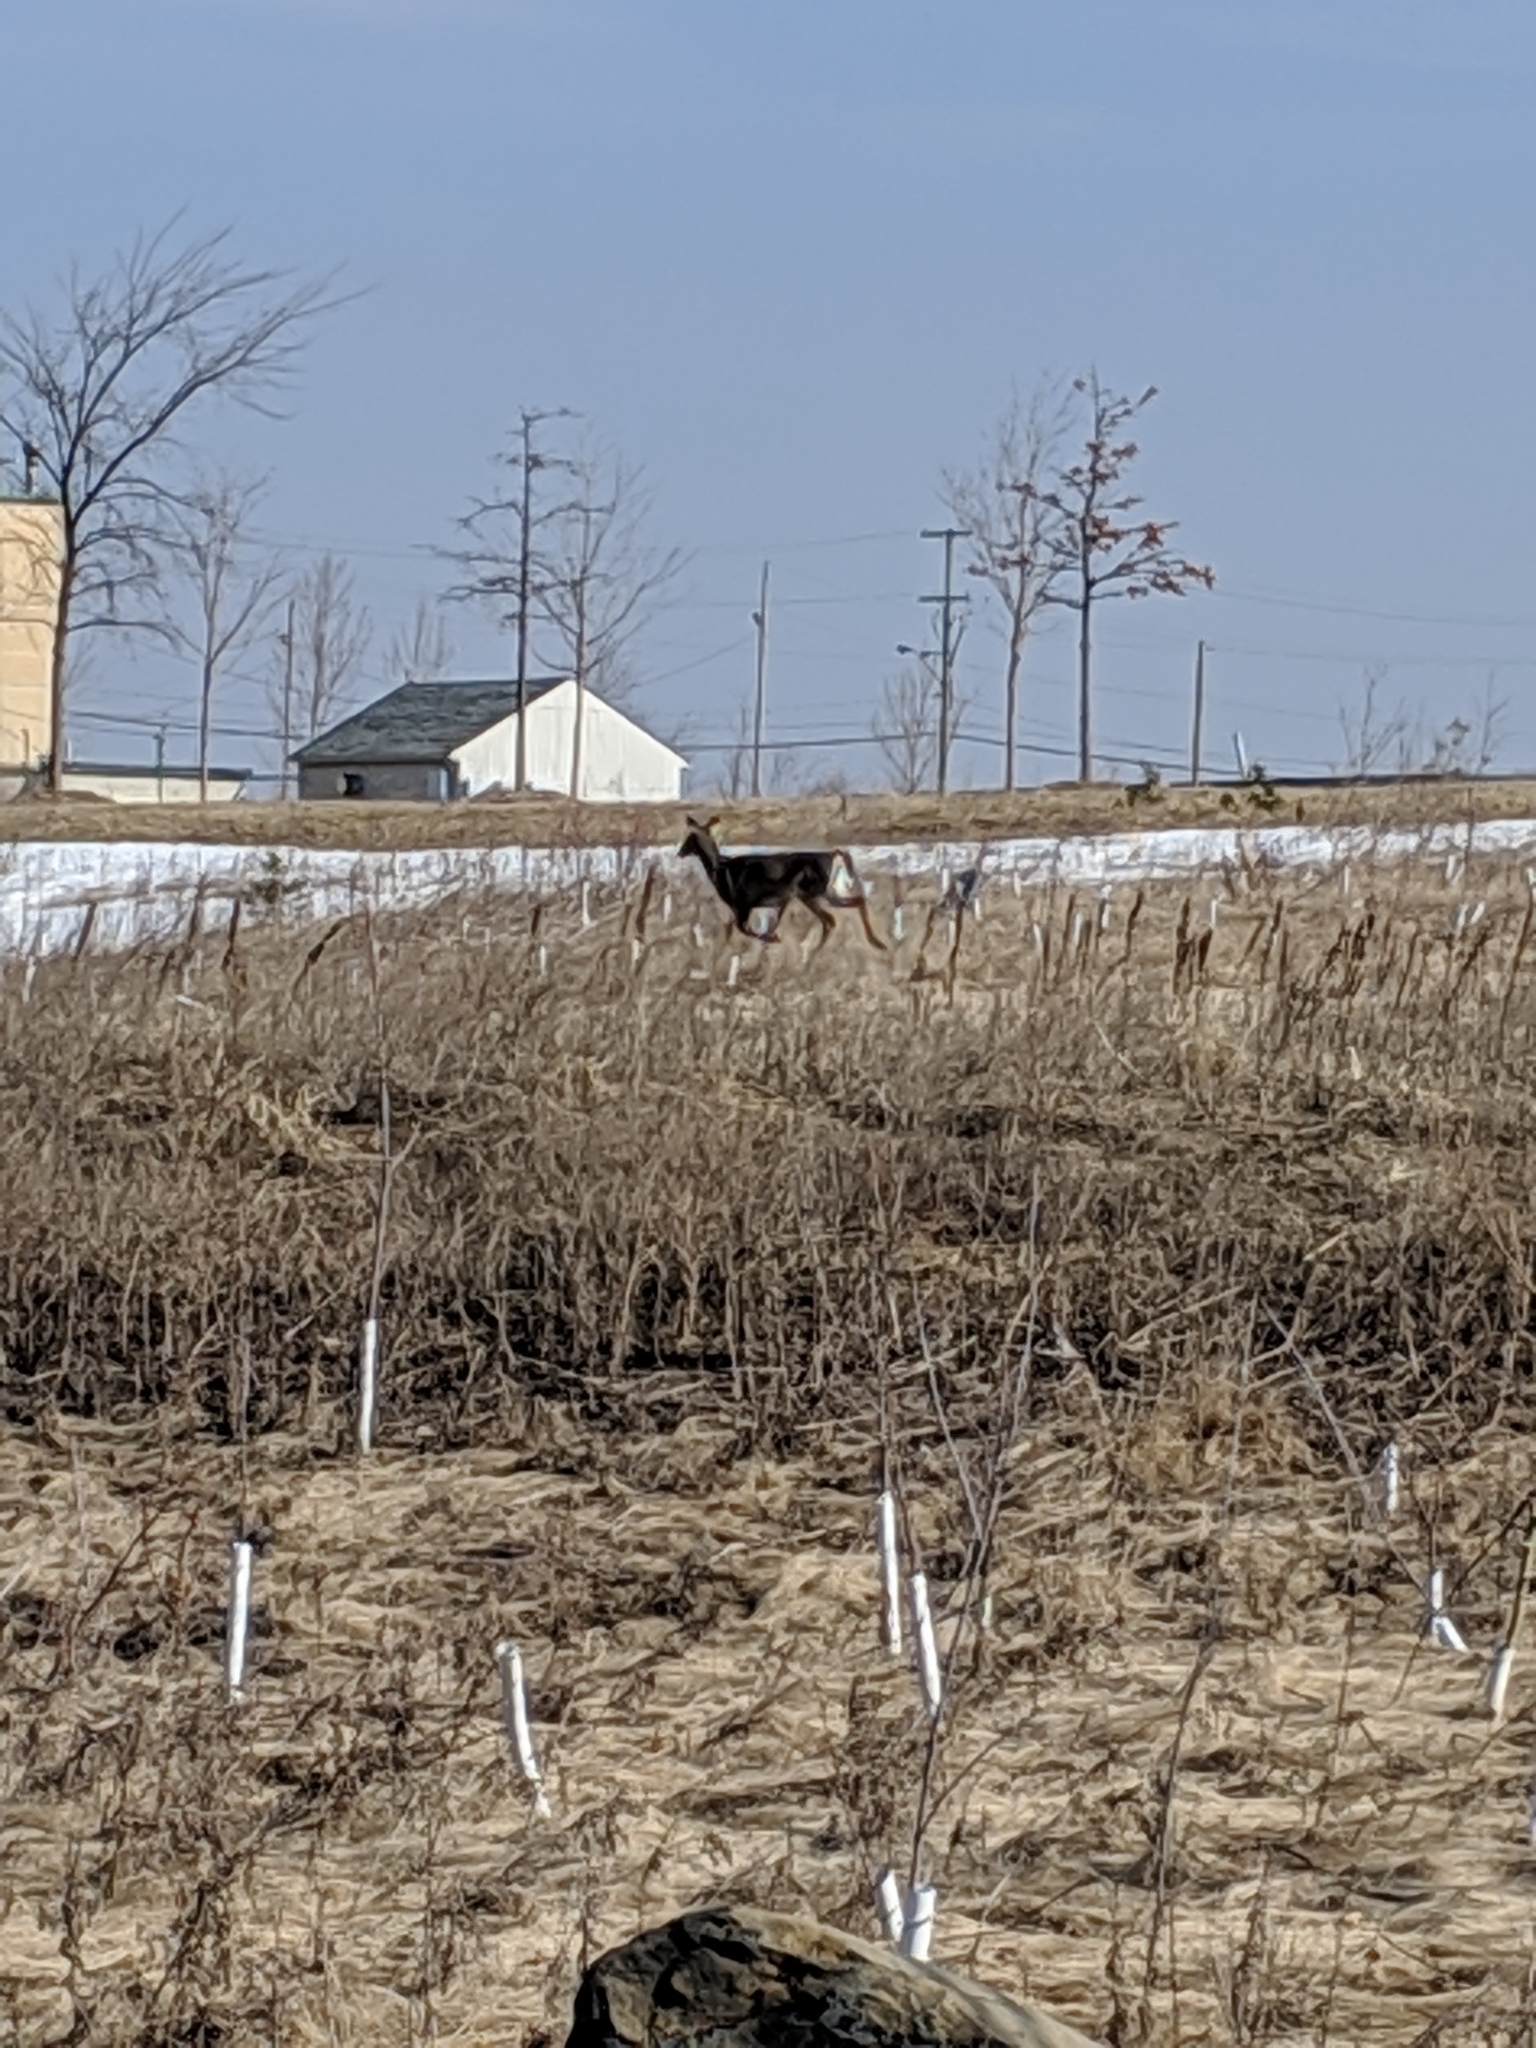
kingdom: Animalia
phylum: Chordata
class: Mammalia
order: Artiodactyla
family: Cervidae
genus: Odocoileus
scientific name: Odocoileus virginianus
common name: White-tailed deer
